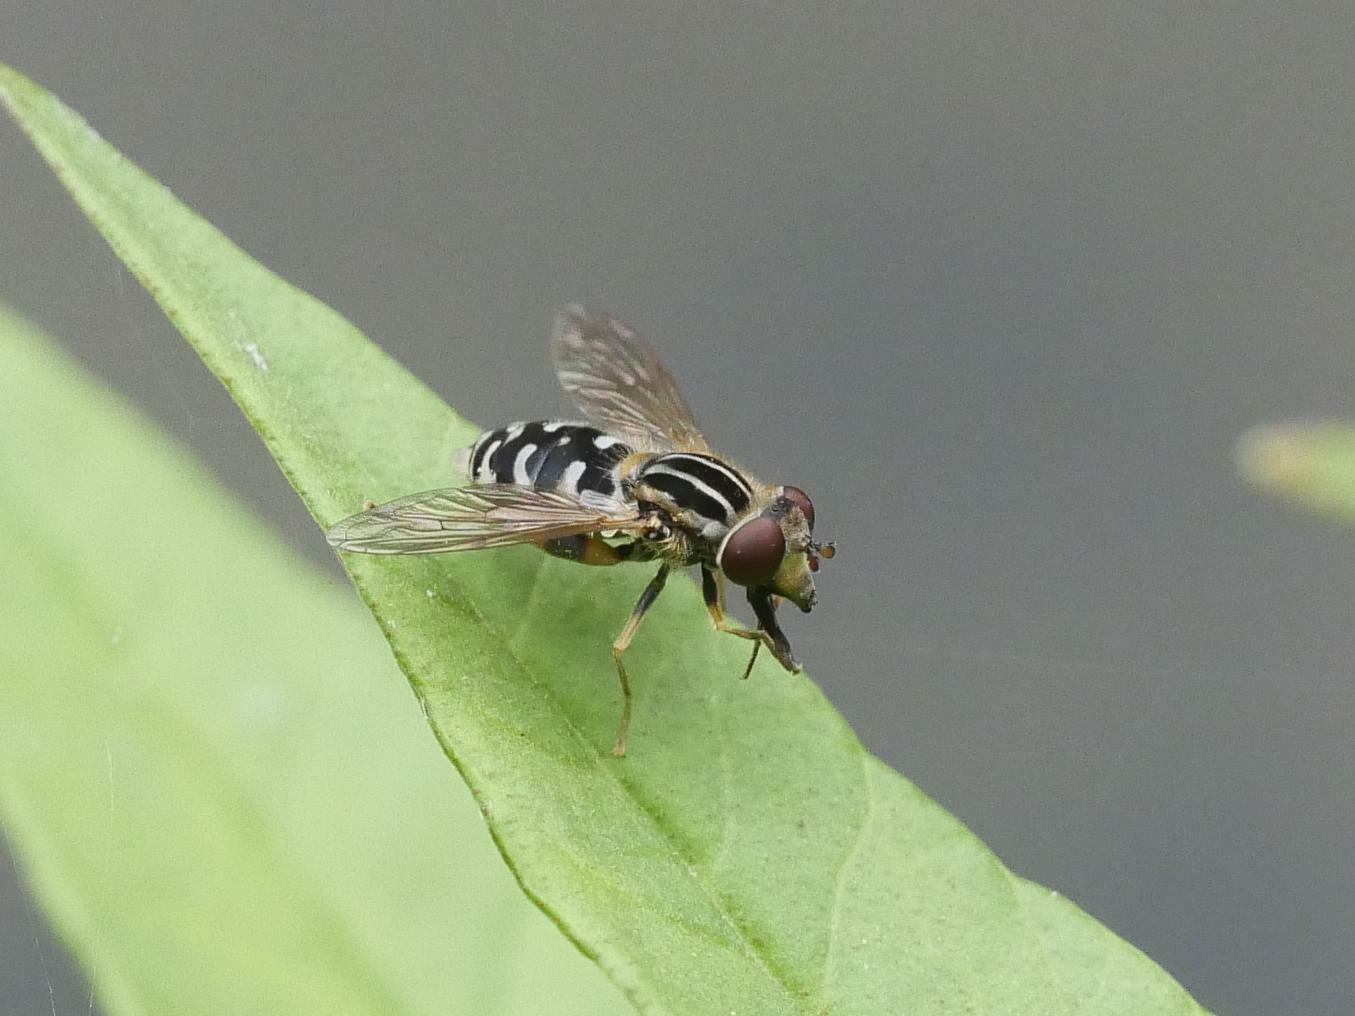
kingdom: Animalia
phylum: Arthropoda
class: Insecta
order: Diptera
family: Syrphidae
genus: Eurimyia
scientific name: Eurimyia lineatus
